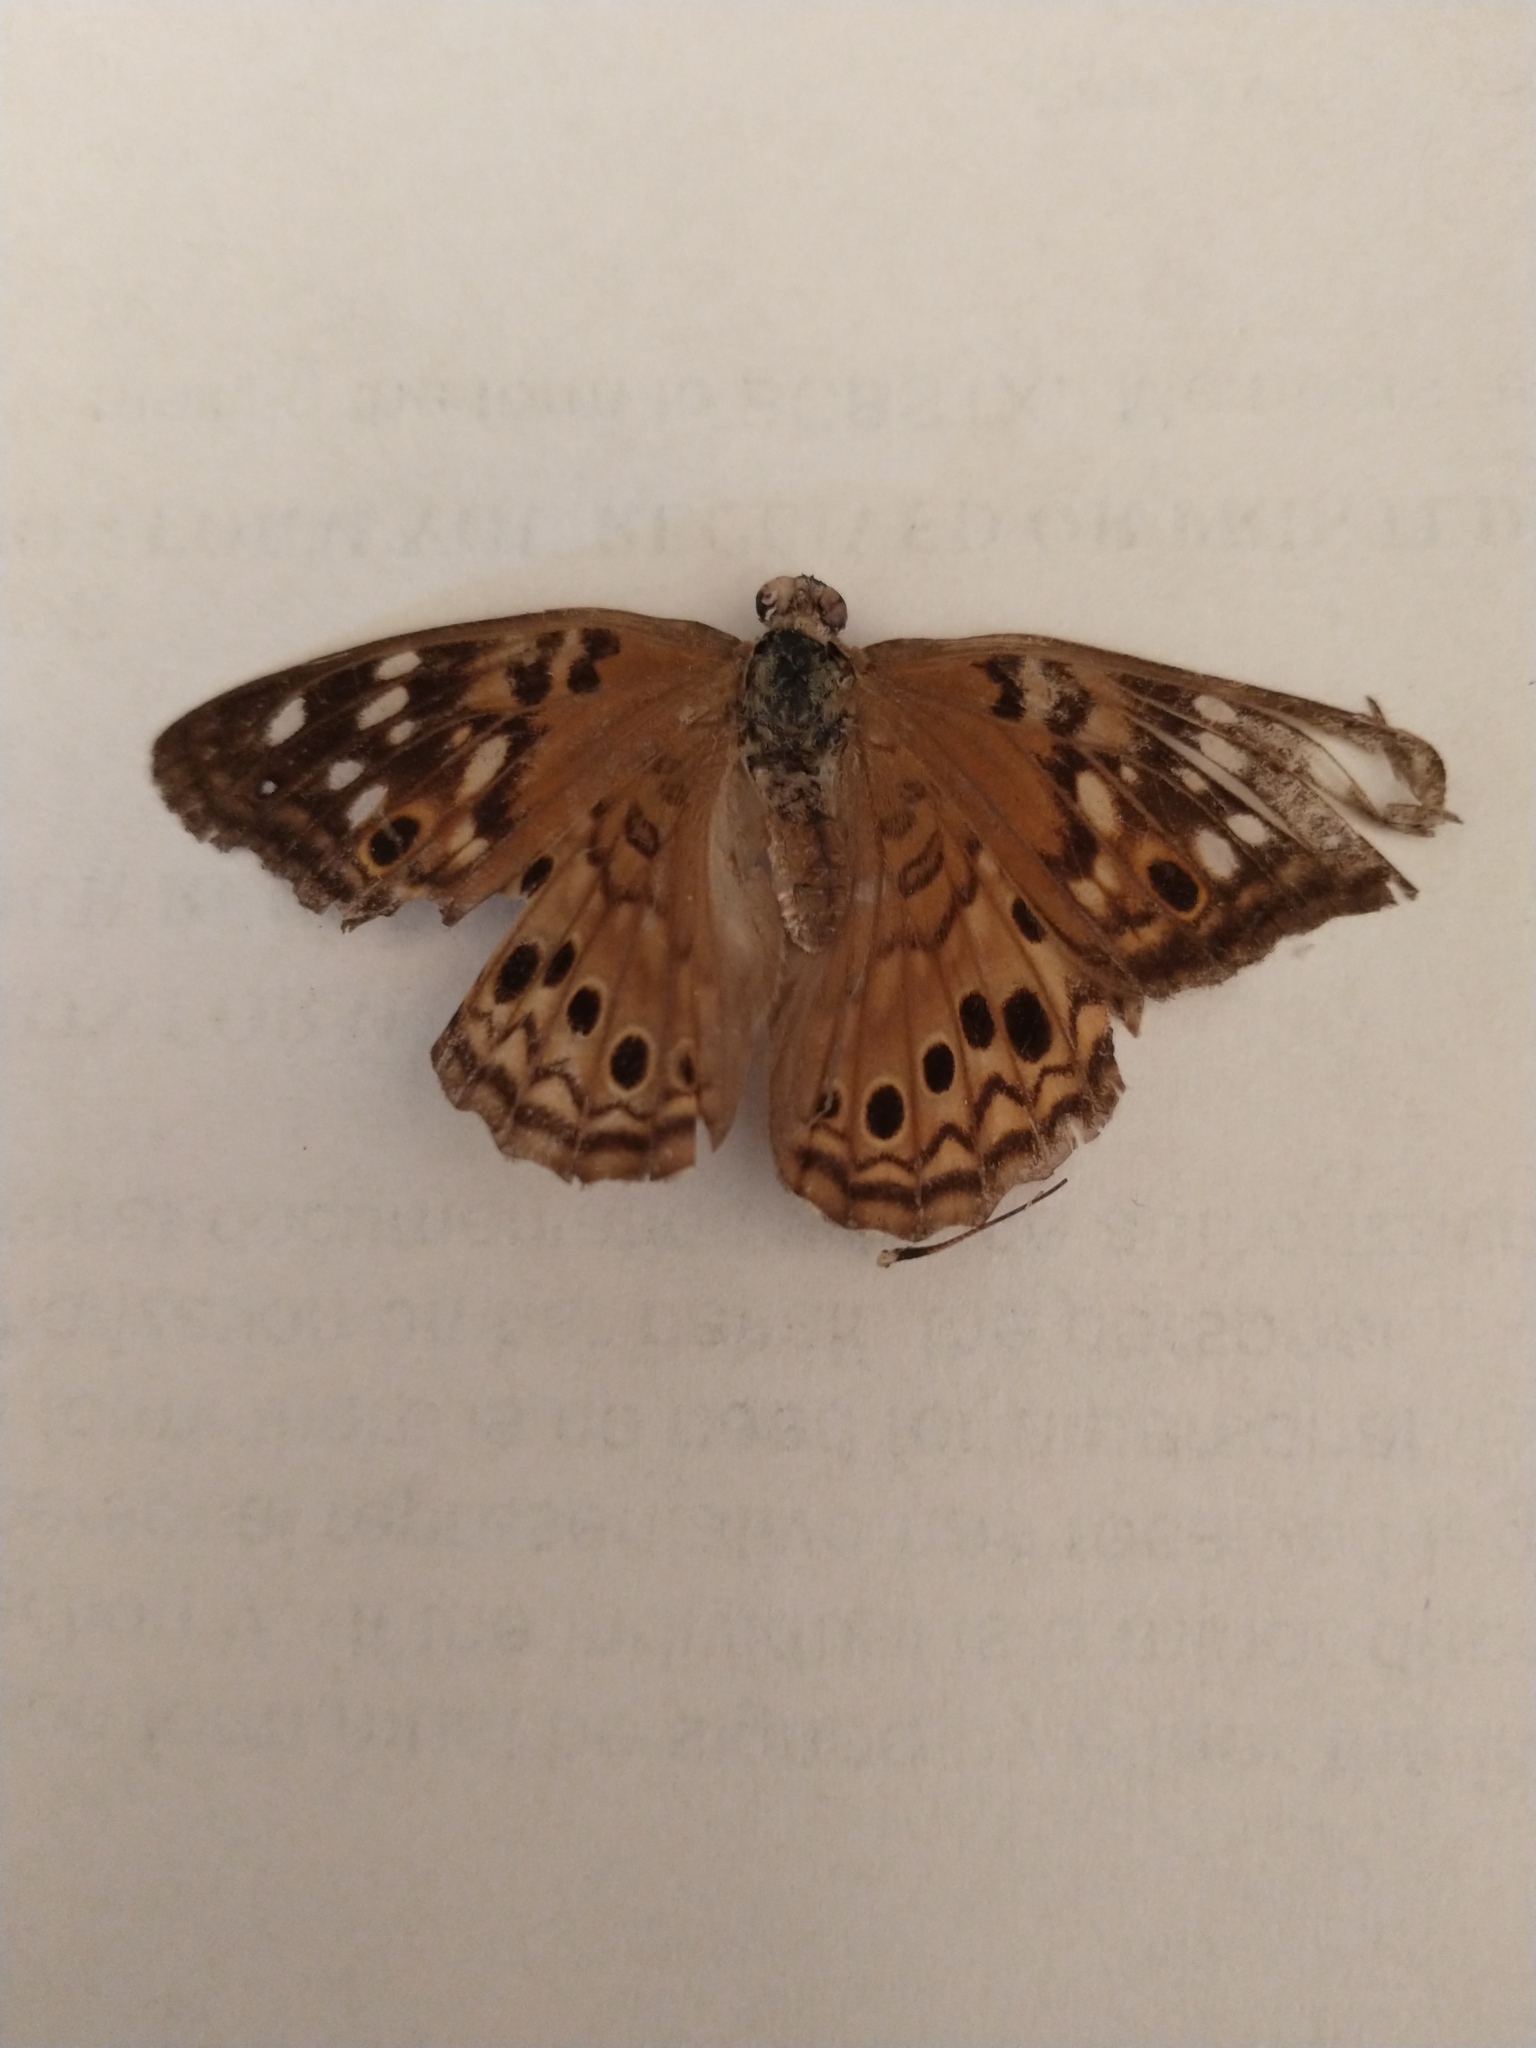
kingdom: Animalia
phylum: Arthropoda
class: Insecta
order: Lepidoptera
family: Nymphalidae
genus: Asterocampa
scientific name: Asterocampa celtis
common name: Hackberry emperor
